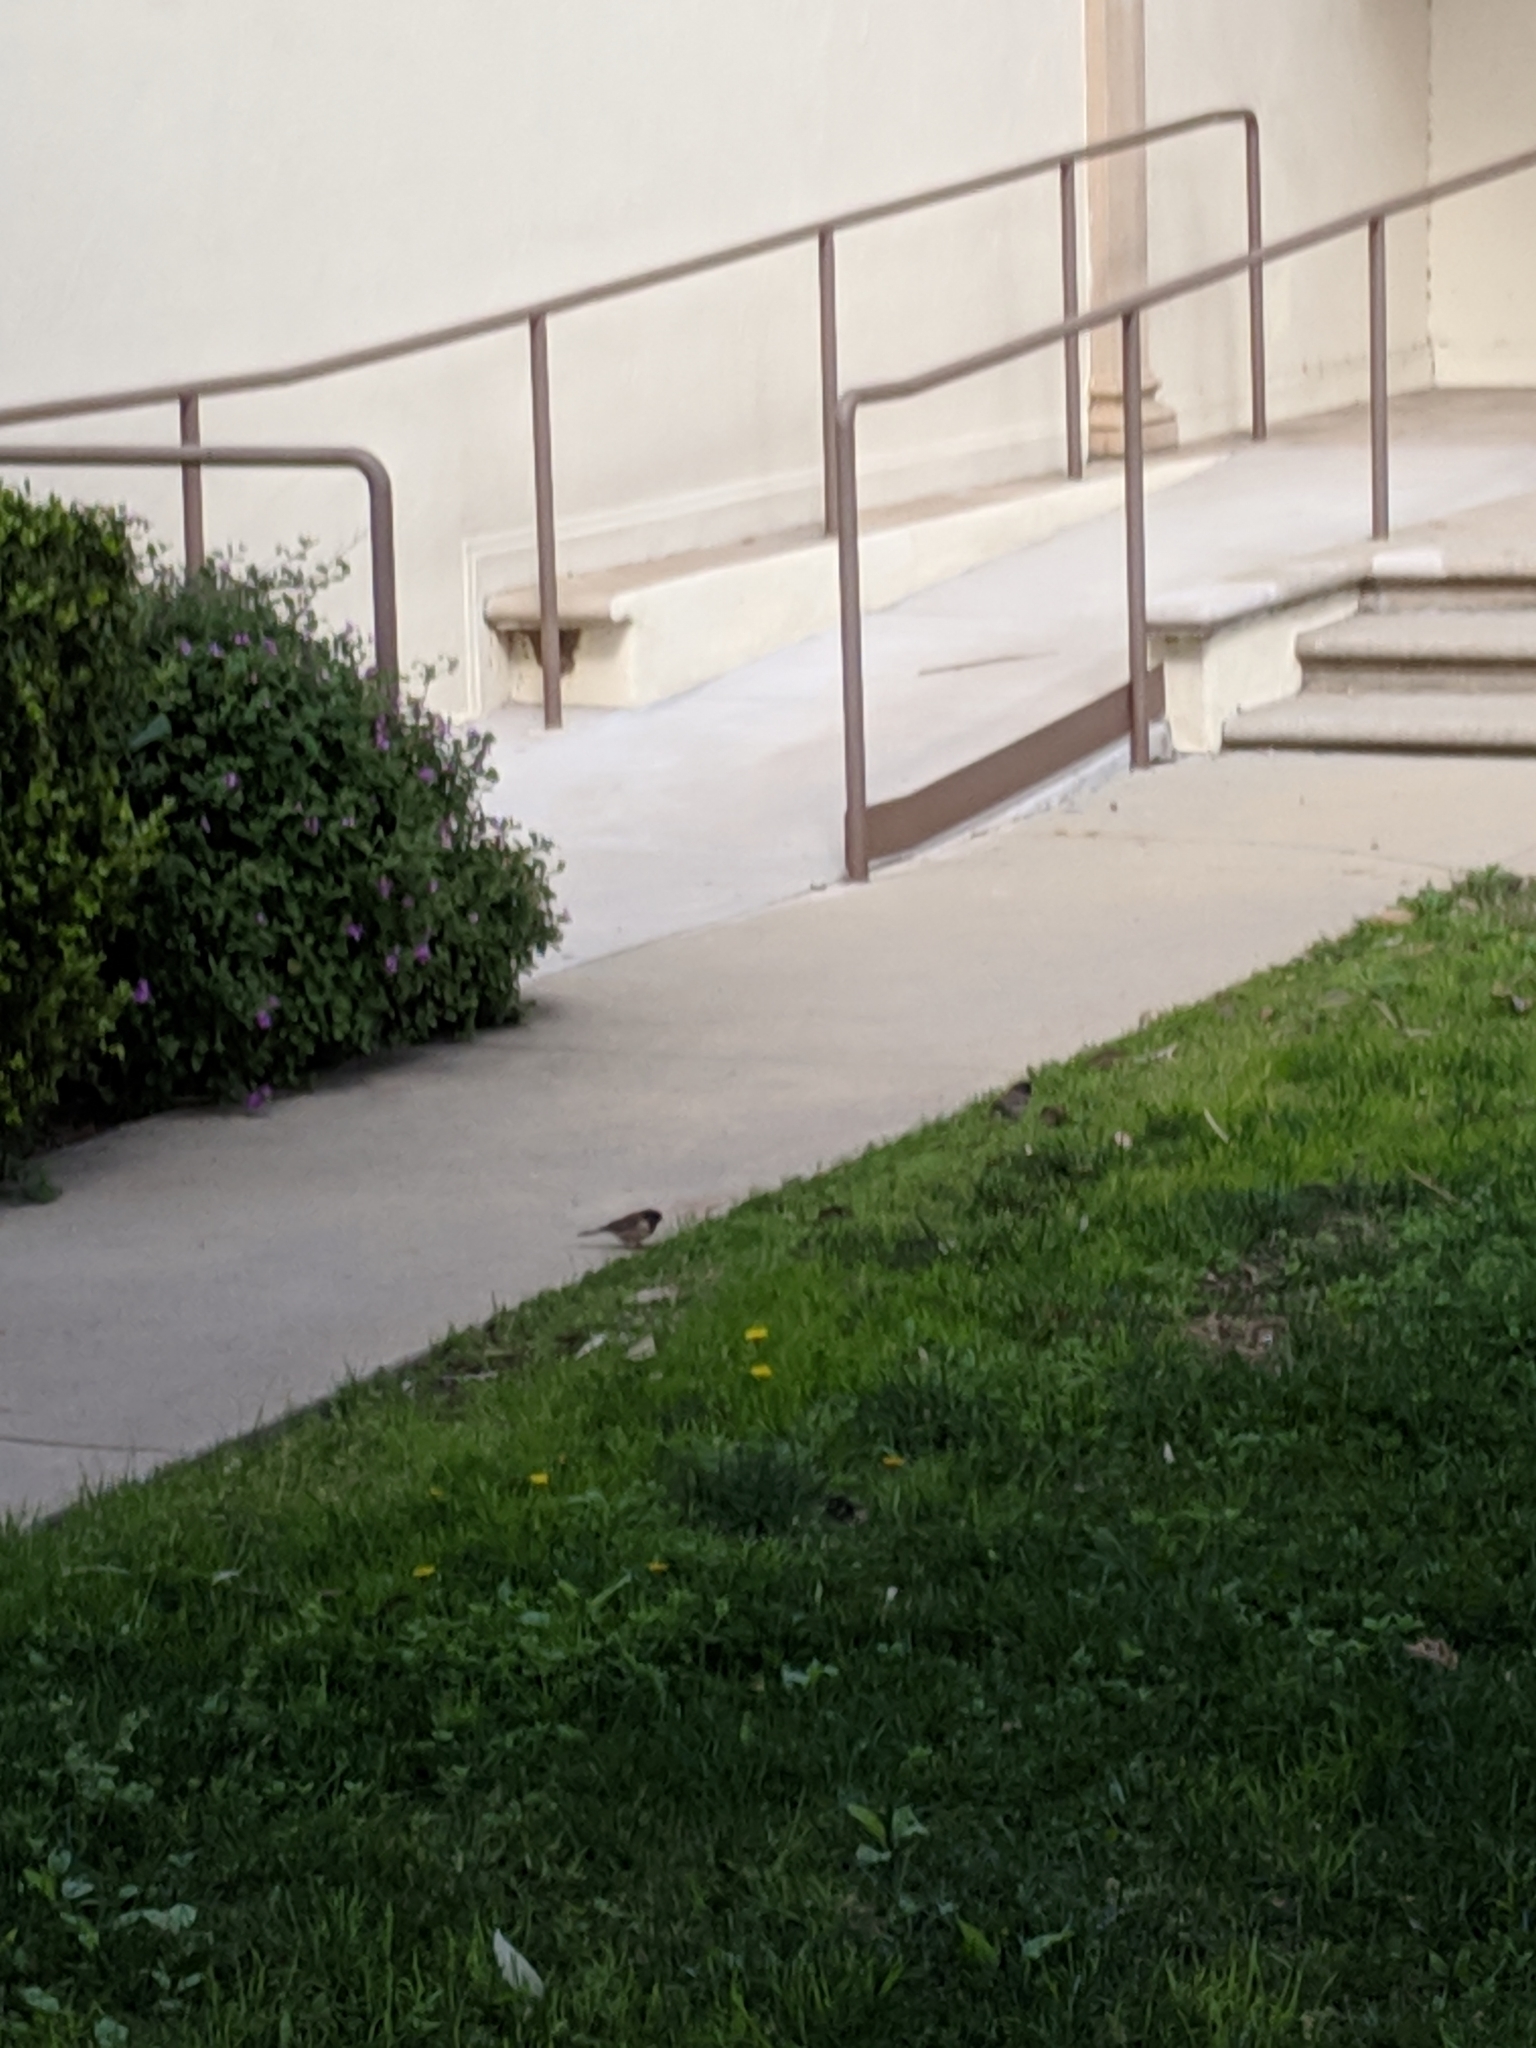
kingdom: Animalia
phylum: Chordata
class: Aves
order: Passeriformes
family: Passerellidae
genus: Junco
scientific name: Junco hyemalis
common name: Dark-eyed junco
